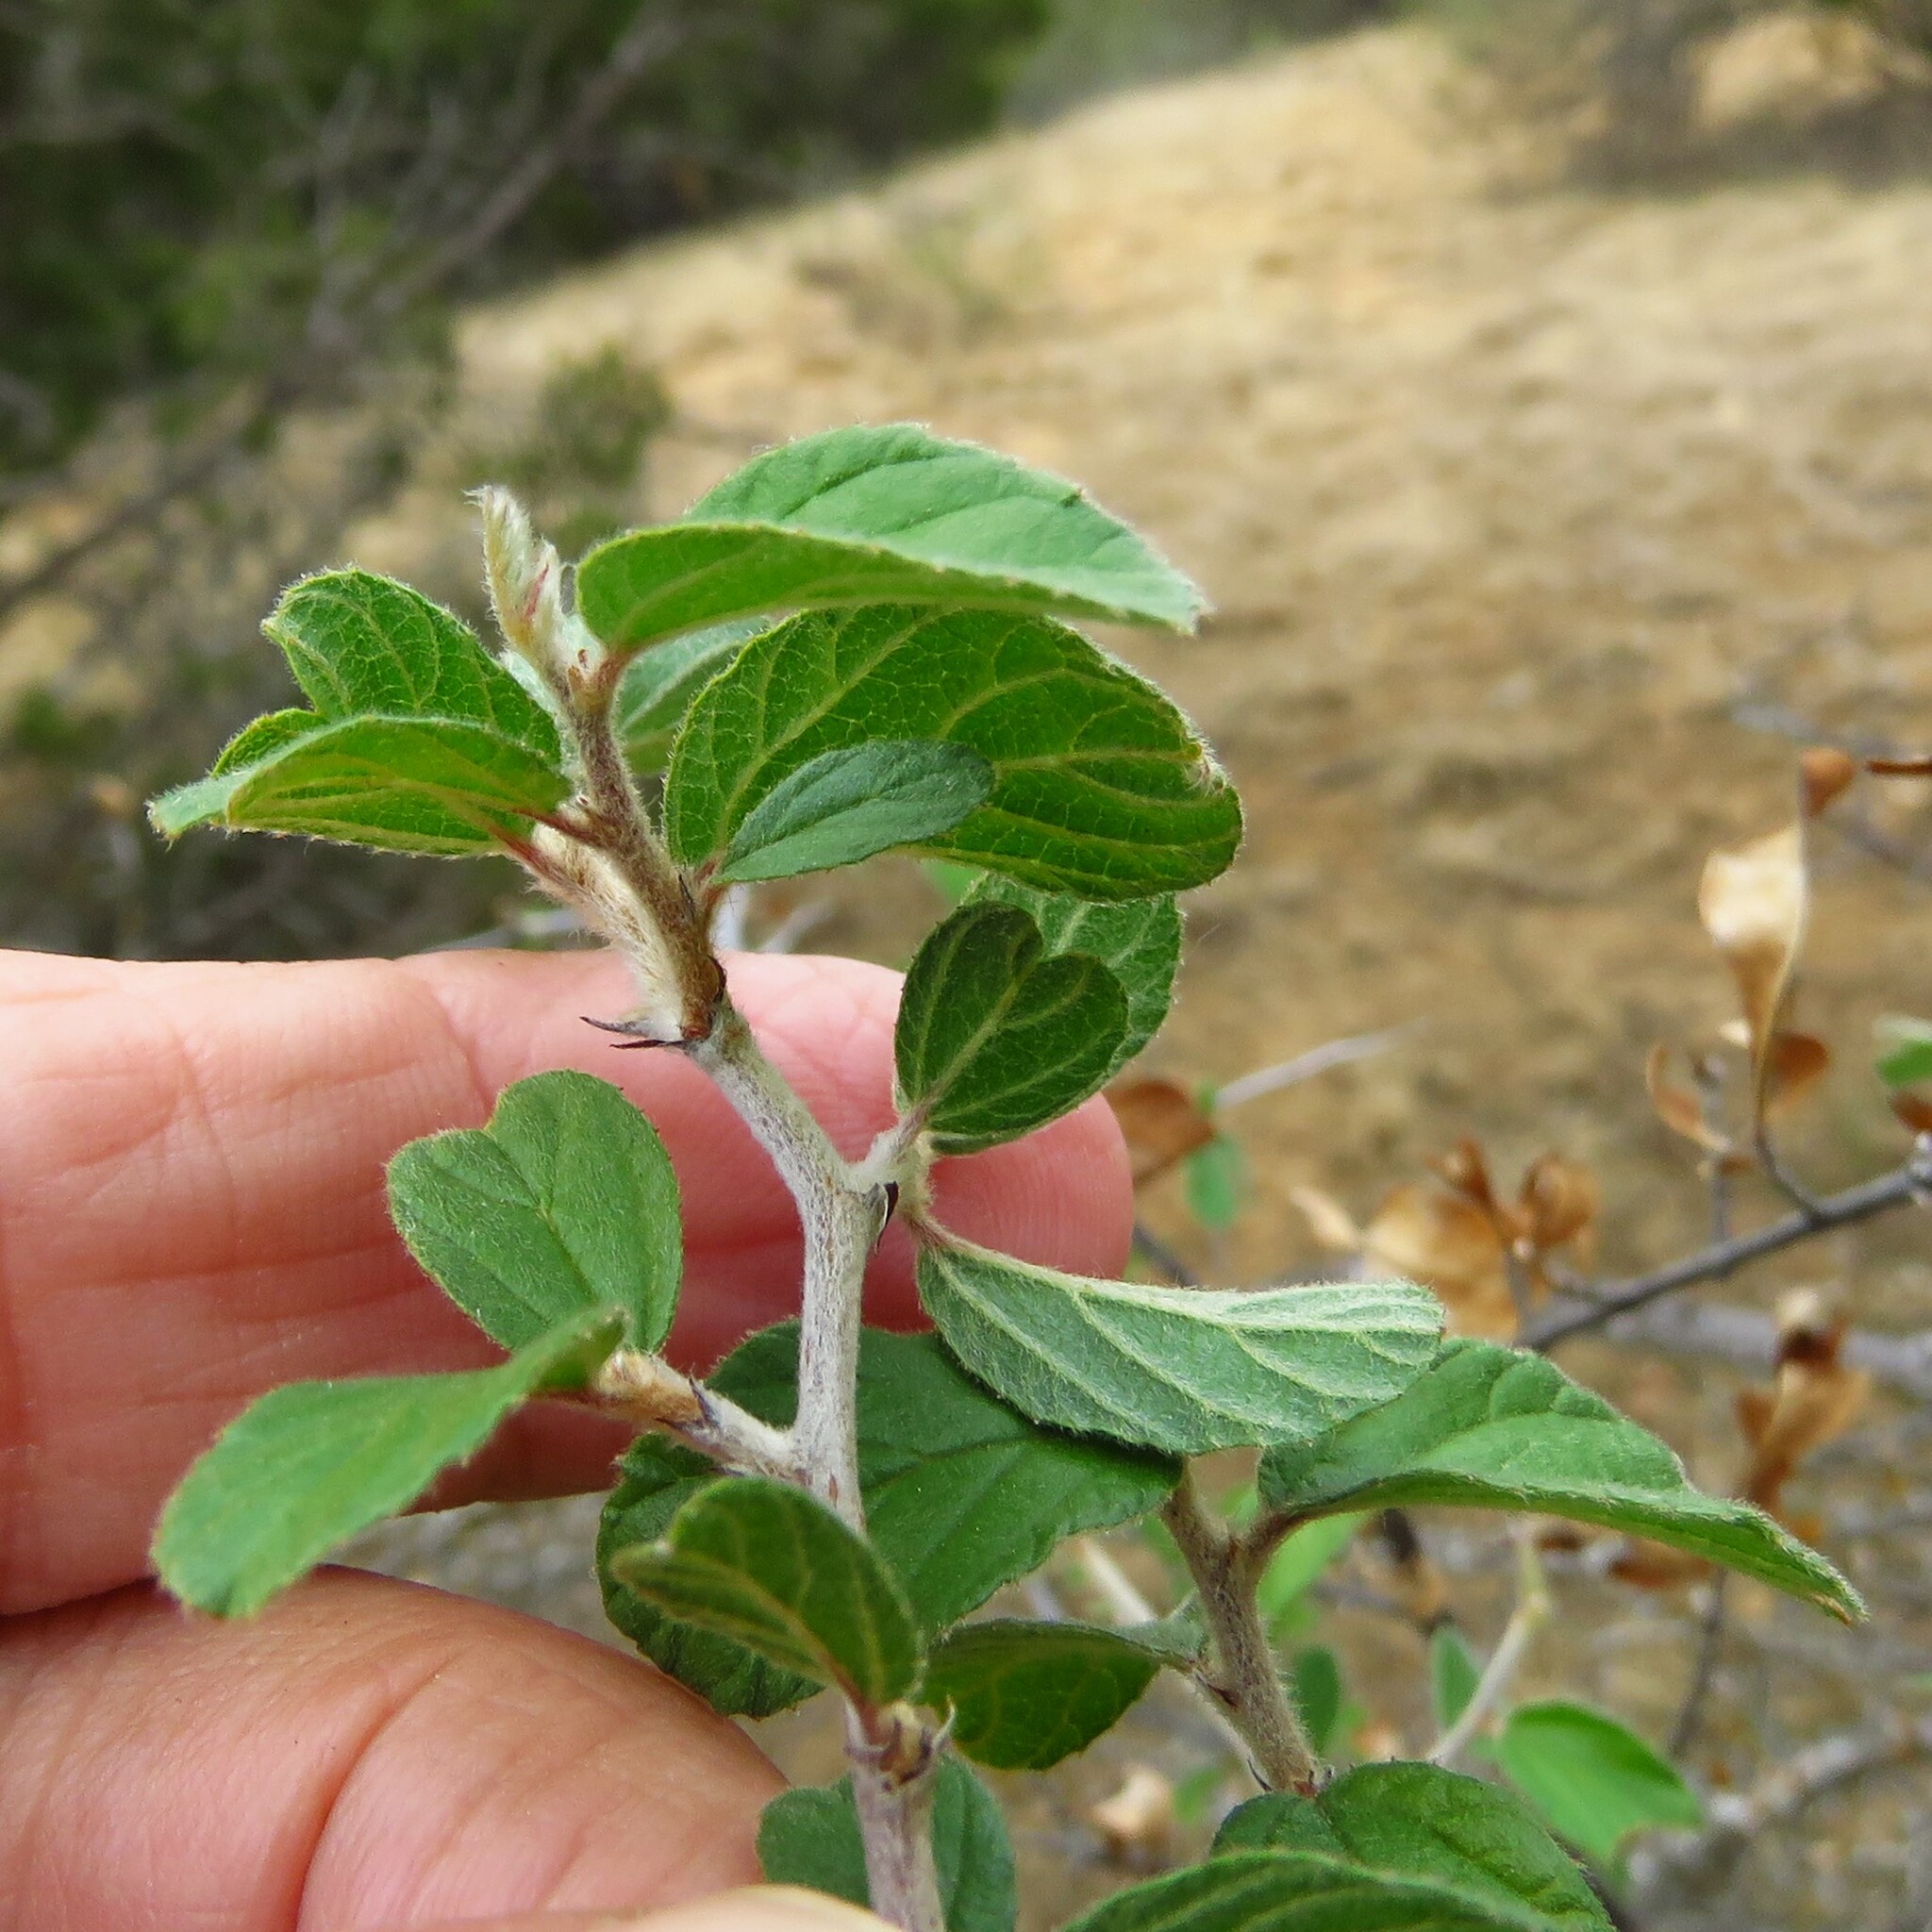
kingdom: Plantae
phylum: Tracheophyta
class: Magnoliopsida
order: Rosales
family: Rhamnaceae
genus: Colubrina
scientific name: Colubrina texensis
